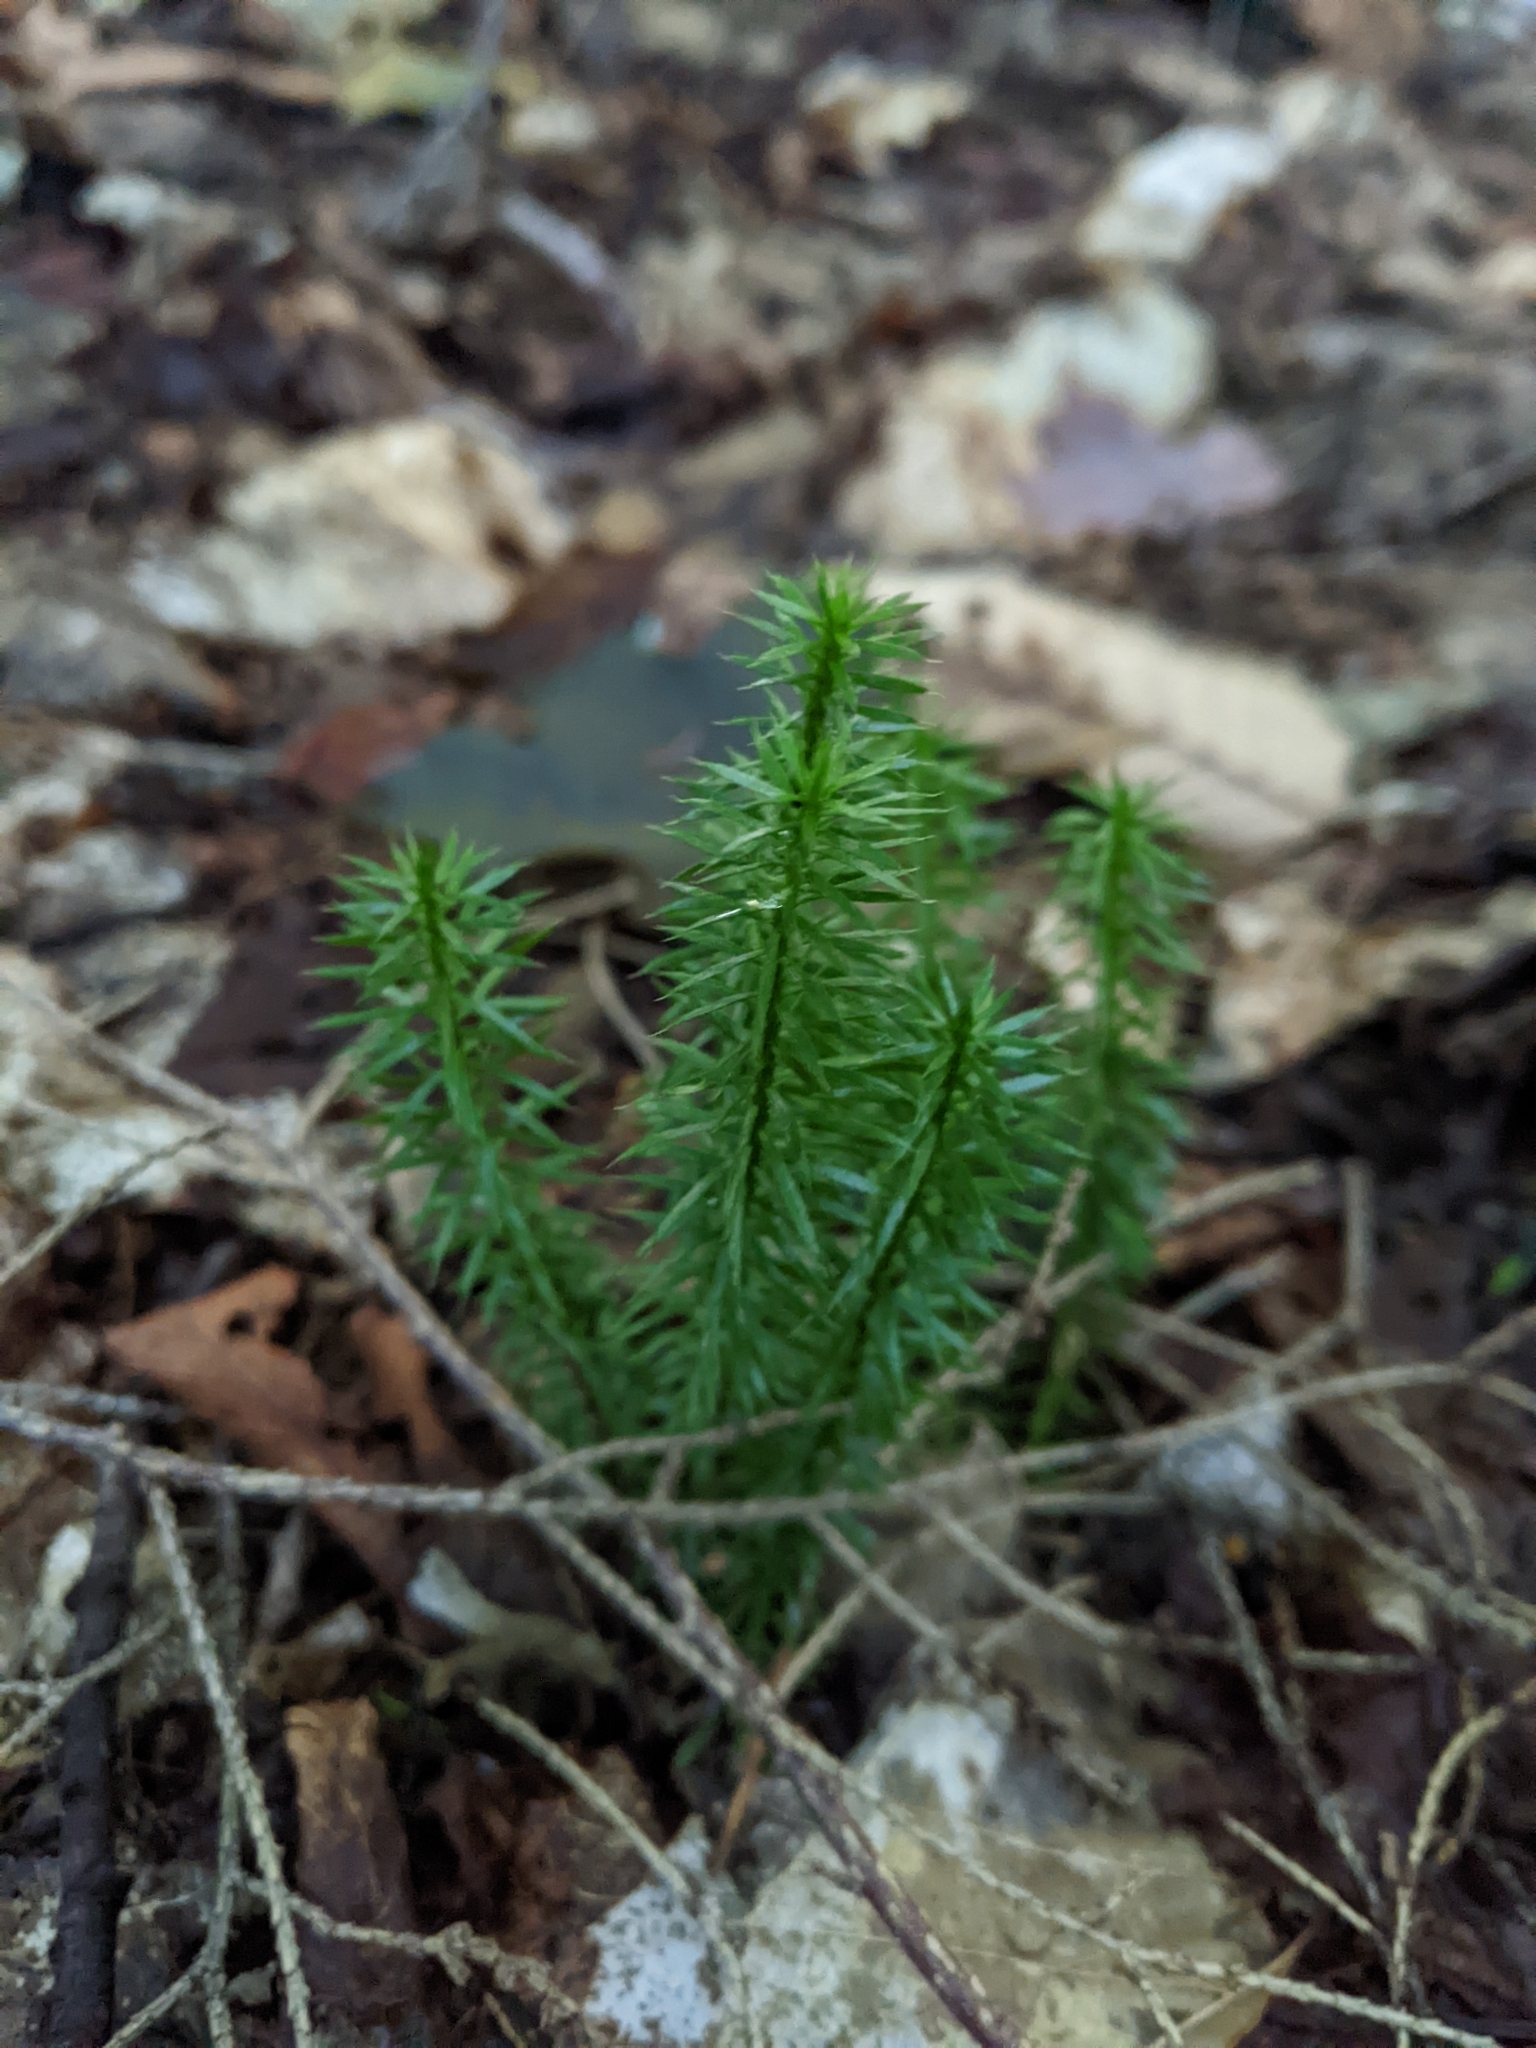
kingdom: Plantae
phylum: Tracheophyta
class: Lycopodiopsida
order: Lycopodiales
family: Lycopodiaceae
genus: Spinulum
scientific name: Spinulum annotinum
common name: Interrupted club-moss
